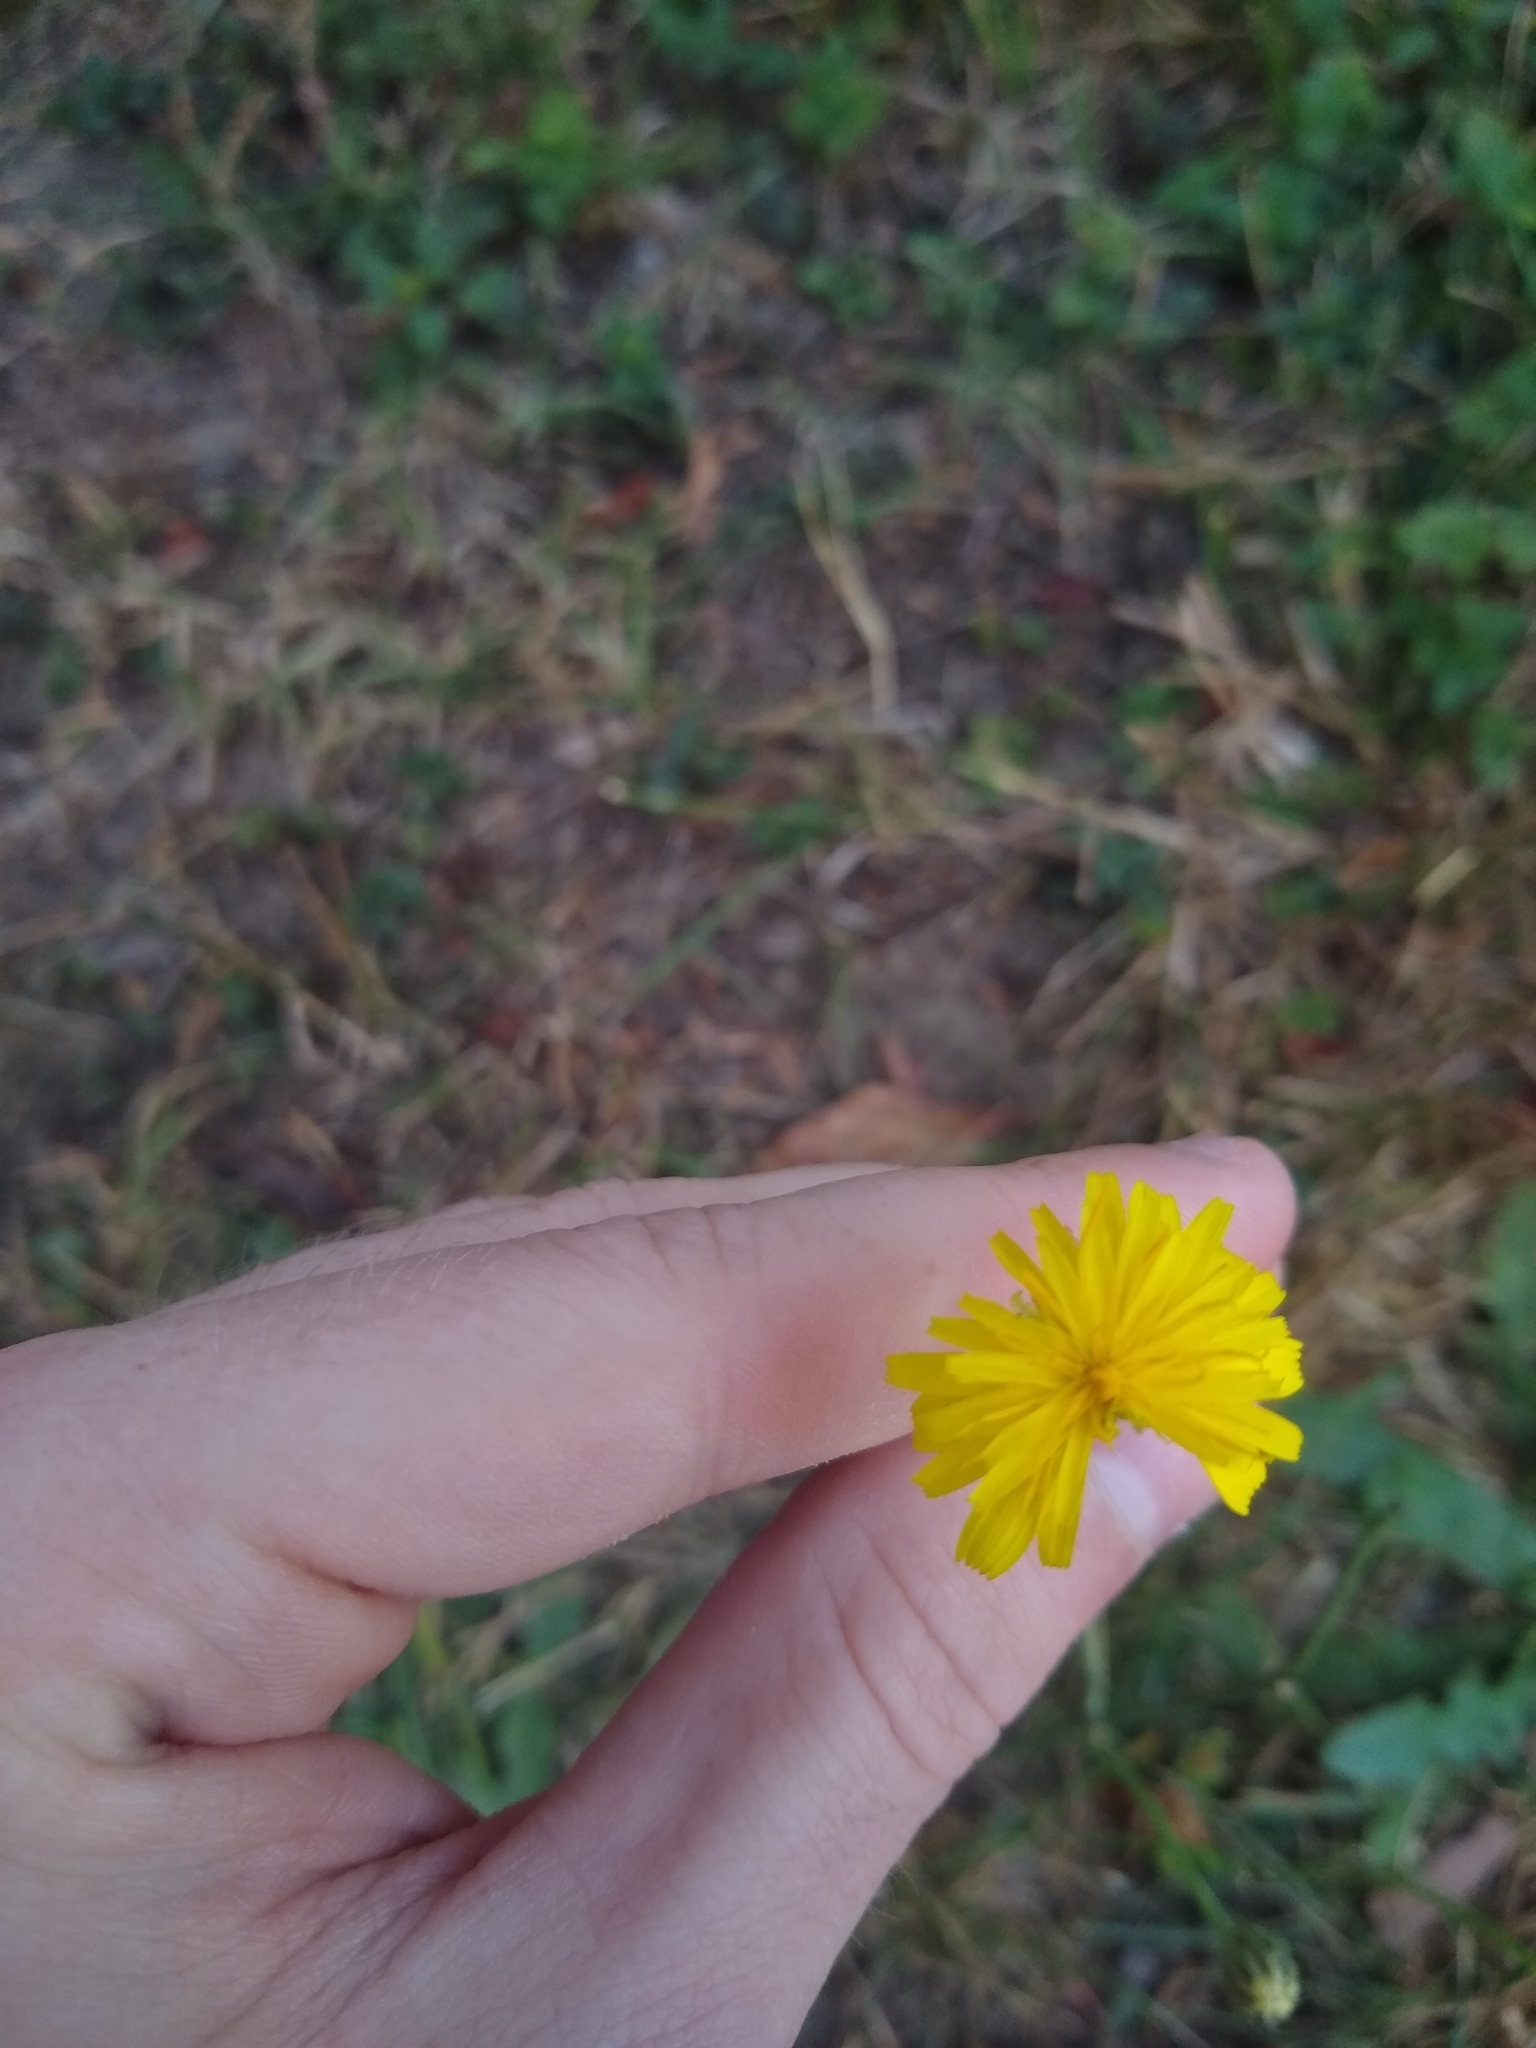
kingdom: Plantae
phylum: Tracheophyta
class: Magnoliopsida
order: Asterales
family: Asteraceae
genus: Hypochaeris
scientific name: Hypochaeris radicata
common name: Flatweed
